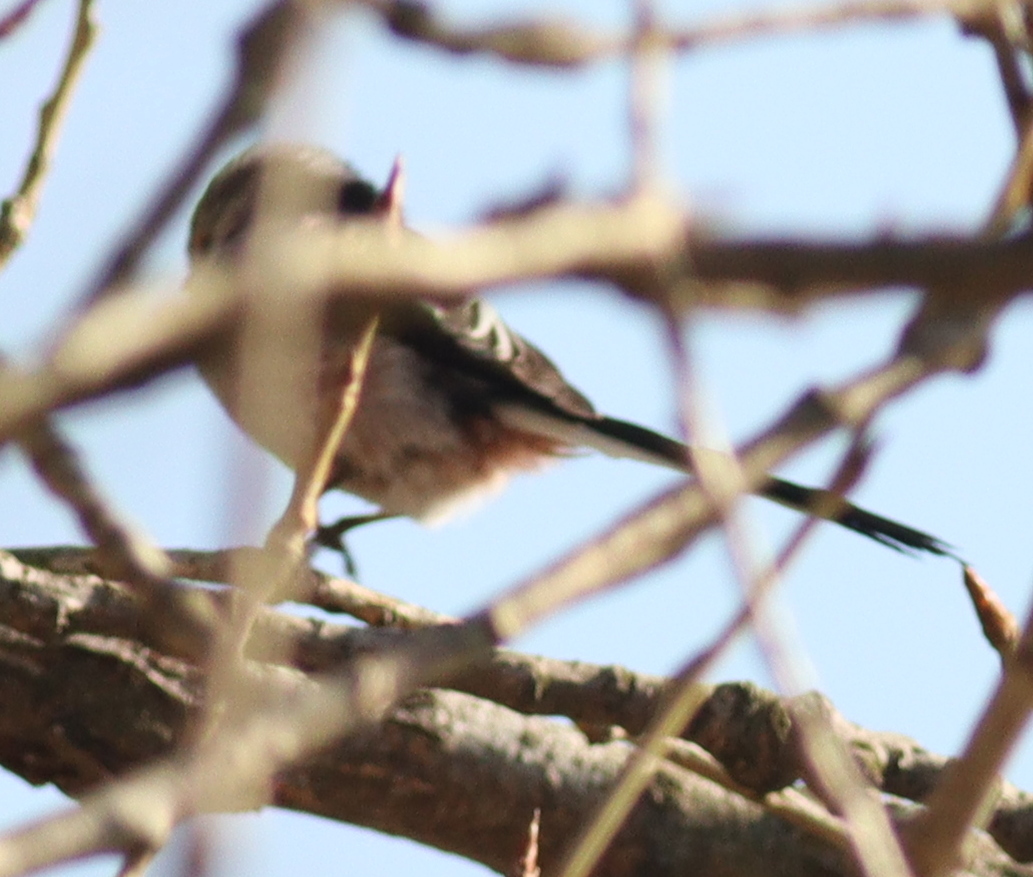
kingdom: Animalia
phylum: Chordata
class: Aves
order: Passeriformes
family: Aegithalidae
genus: Aegithalos
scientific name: Aegithalos caudatus
